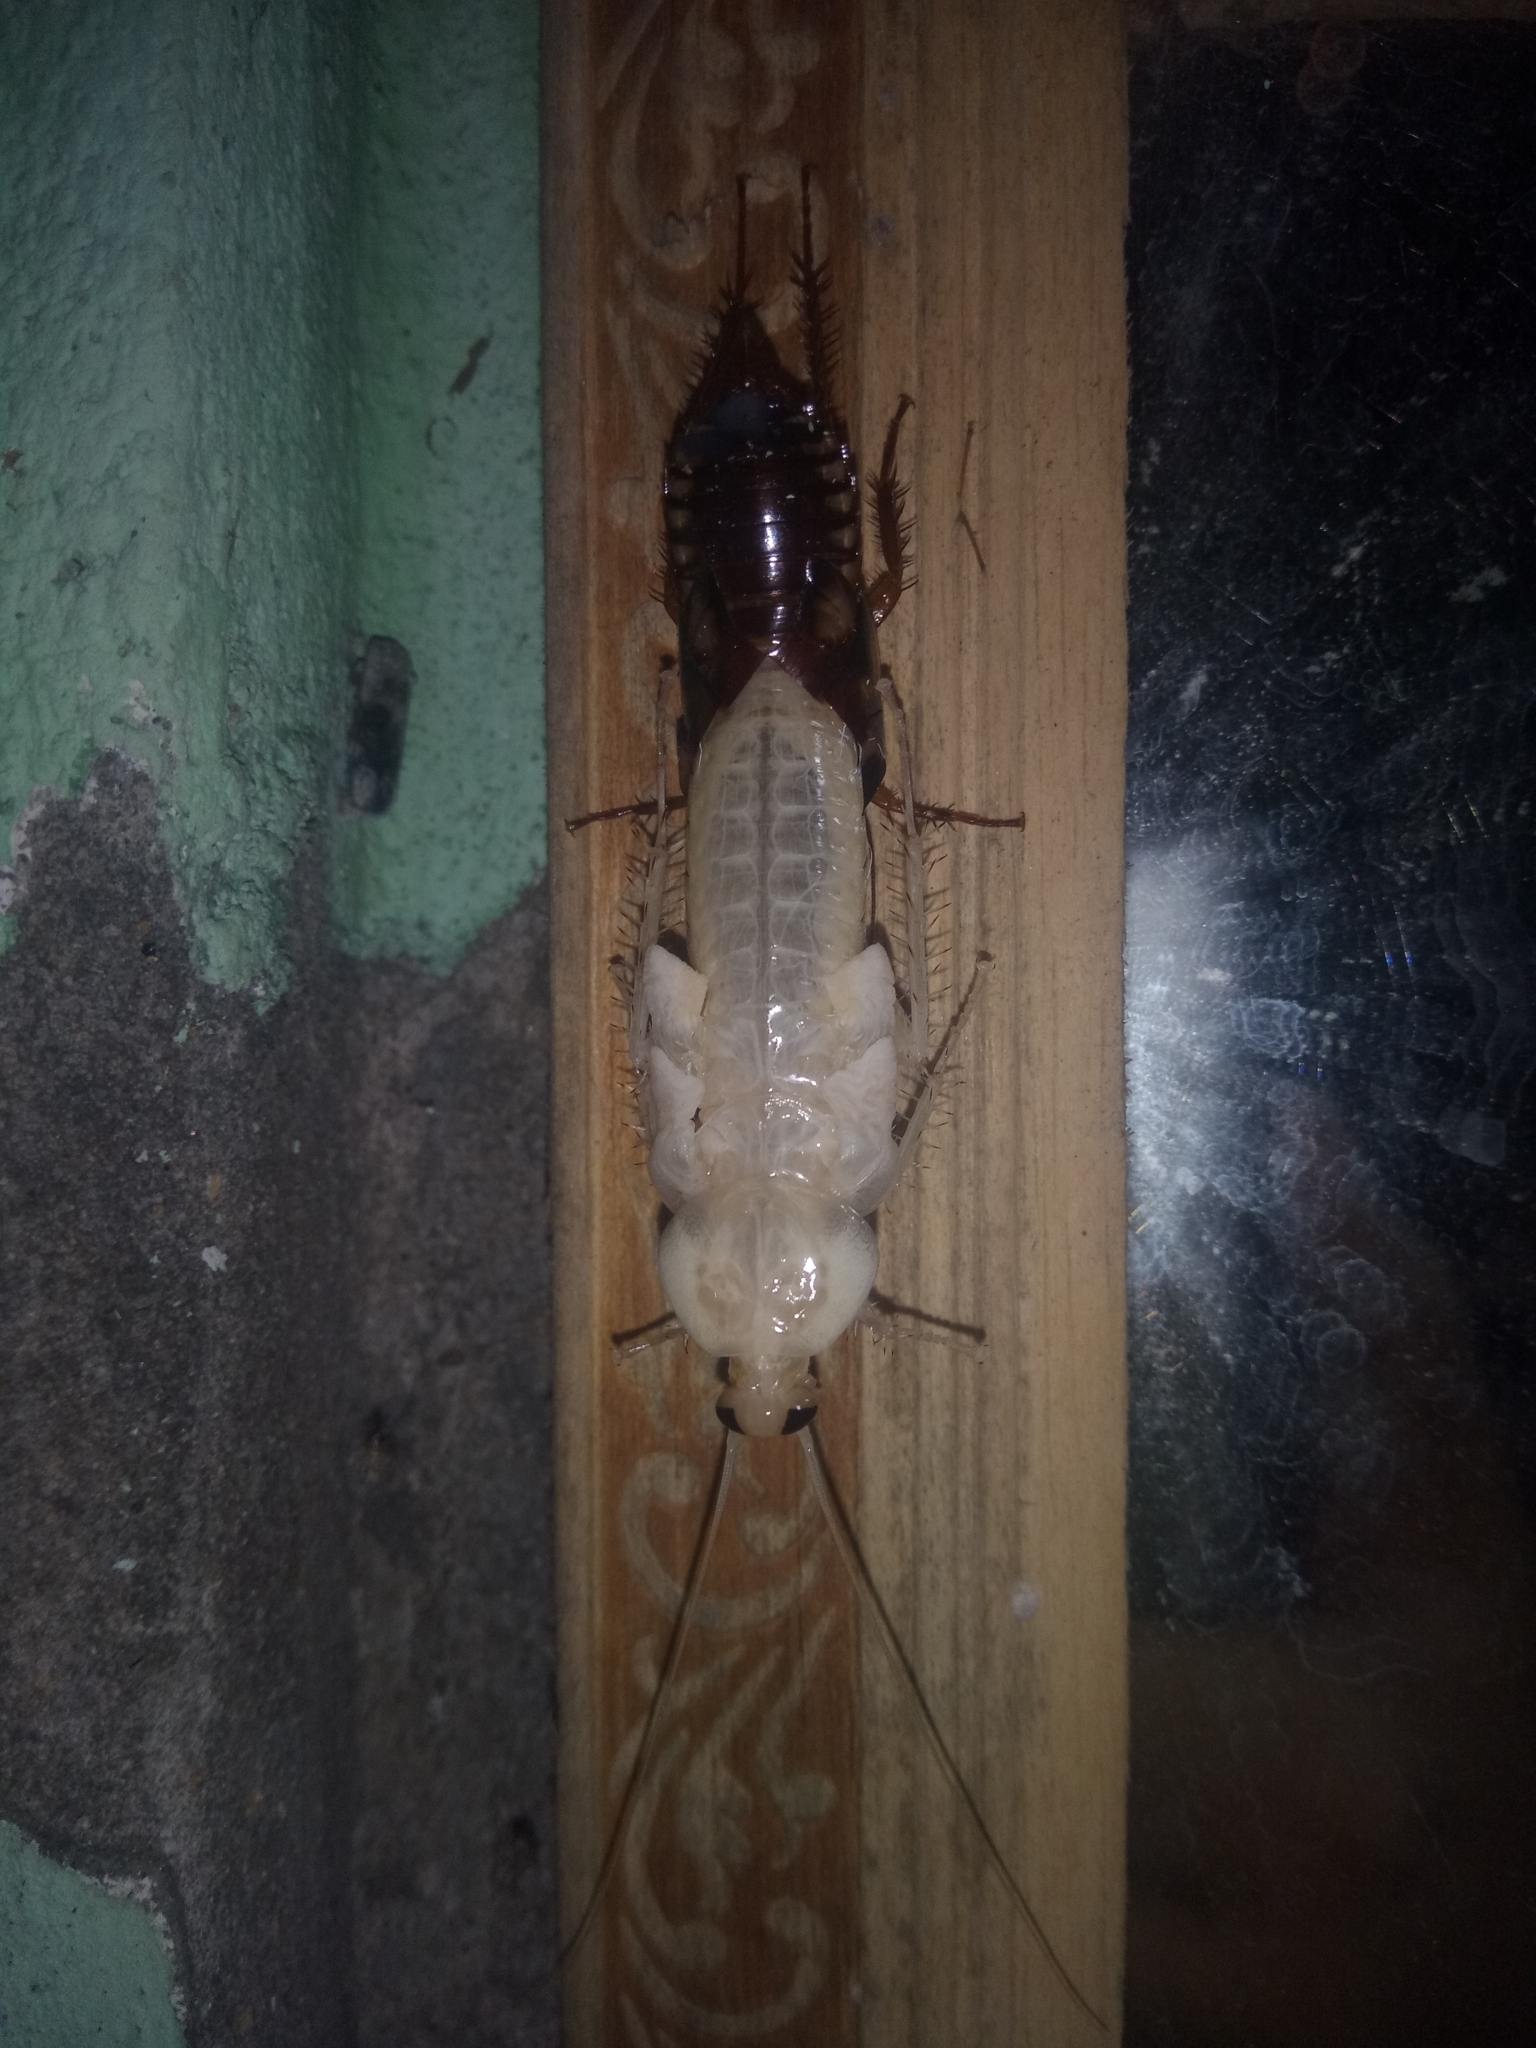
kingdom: Animalia
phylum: Arthropoda
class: Insecta
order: Blattodea
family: Blattidae
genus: Periplaneta
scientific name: Periplaneta australasiae
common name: Australian cockroach
